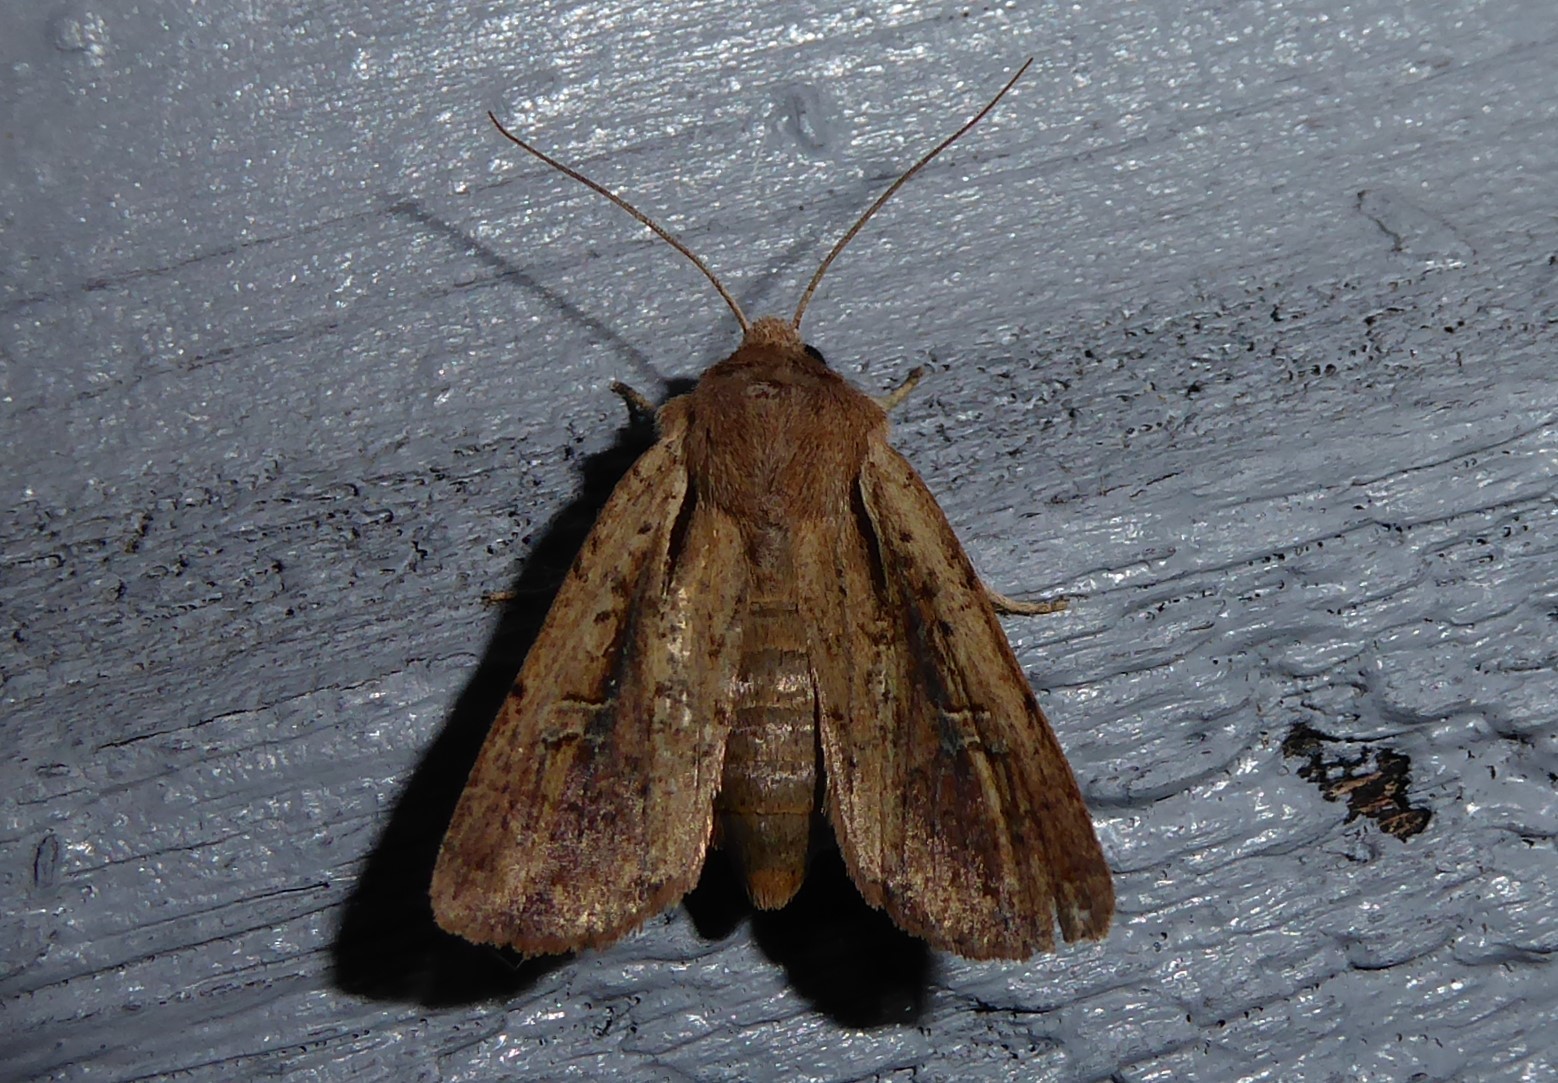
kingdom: Animalia
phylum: Arthropoda
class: Insecta
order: Lepidoptera
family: Noctuidae
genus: Ichneutica
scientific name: Ichneutica atristriga
